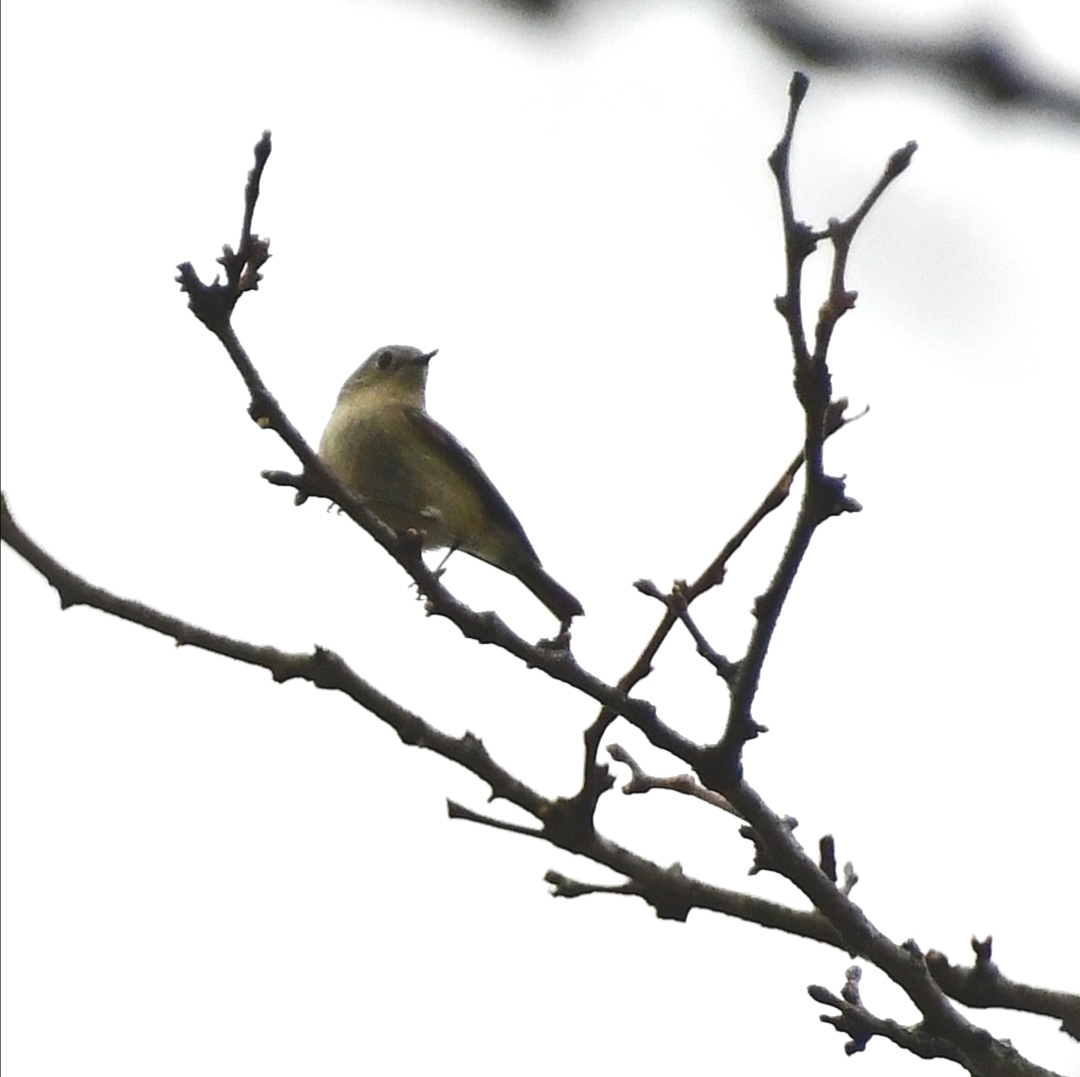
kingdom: Animalia
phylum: Chordata
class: Aves
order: Passeriformes
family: Parulidae
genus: Leiothlypis
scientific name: Leiothlypis ruficapilla
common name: Nashville warbler
